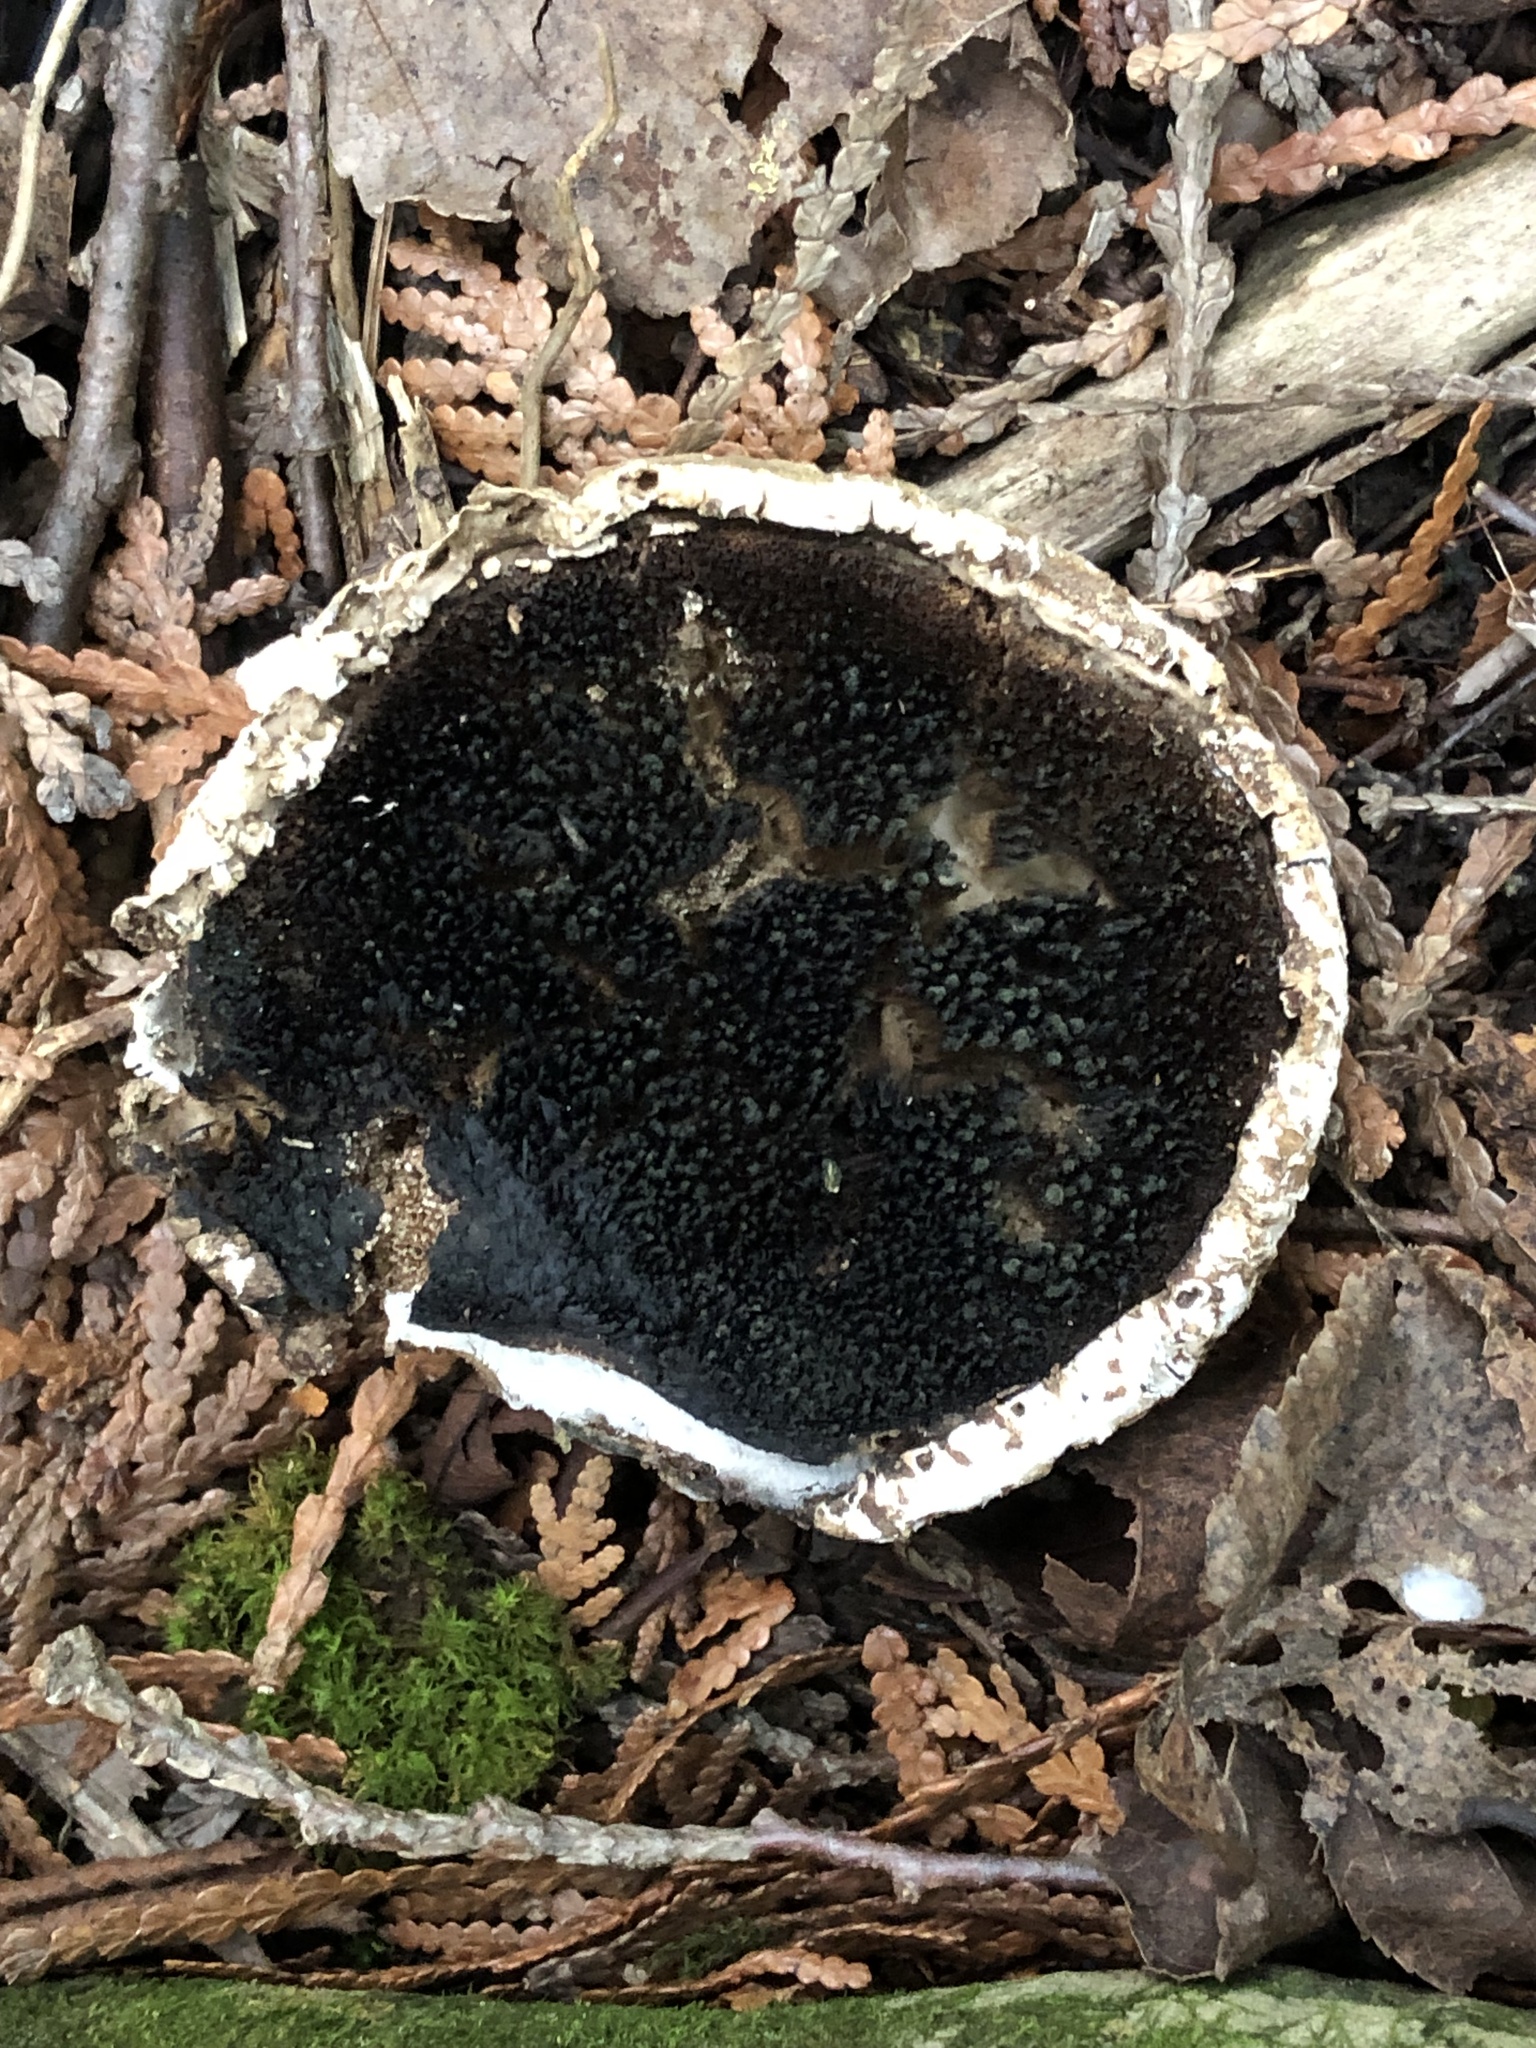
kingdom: Fungi
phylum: Basidiomycota
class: Agaricomycetes
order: Polyporales
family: Fomitopsidaceae
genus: Fomitopsis
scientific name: Fomitopsis betulina
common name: Birch polypore
